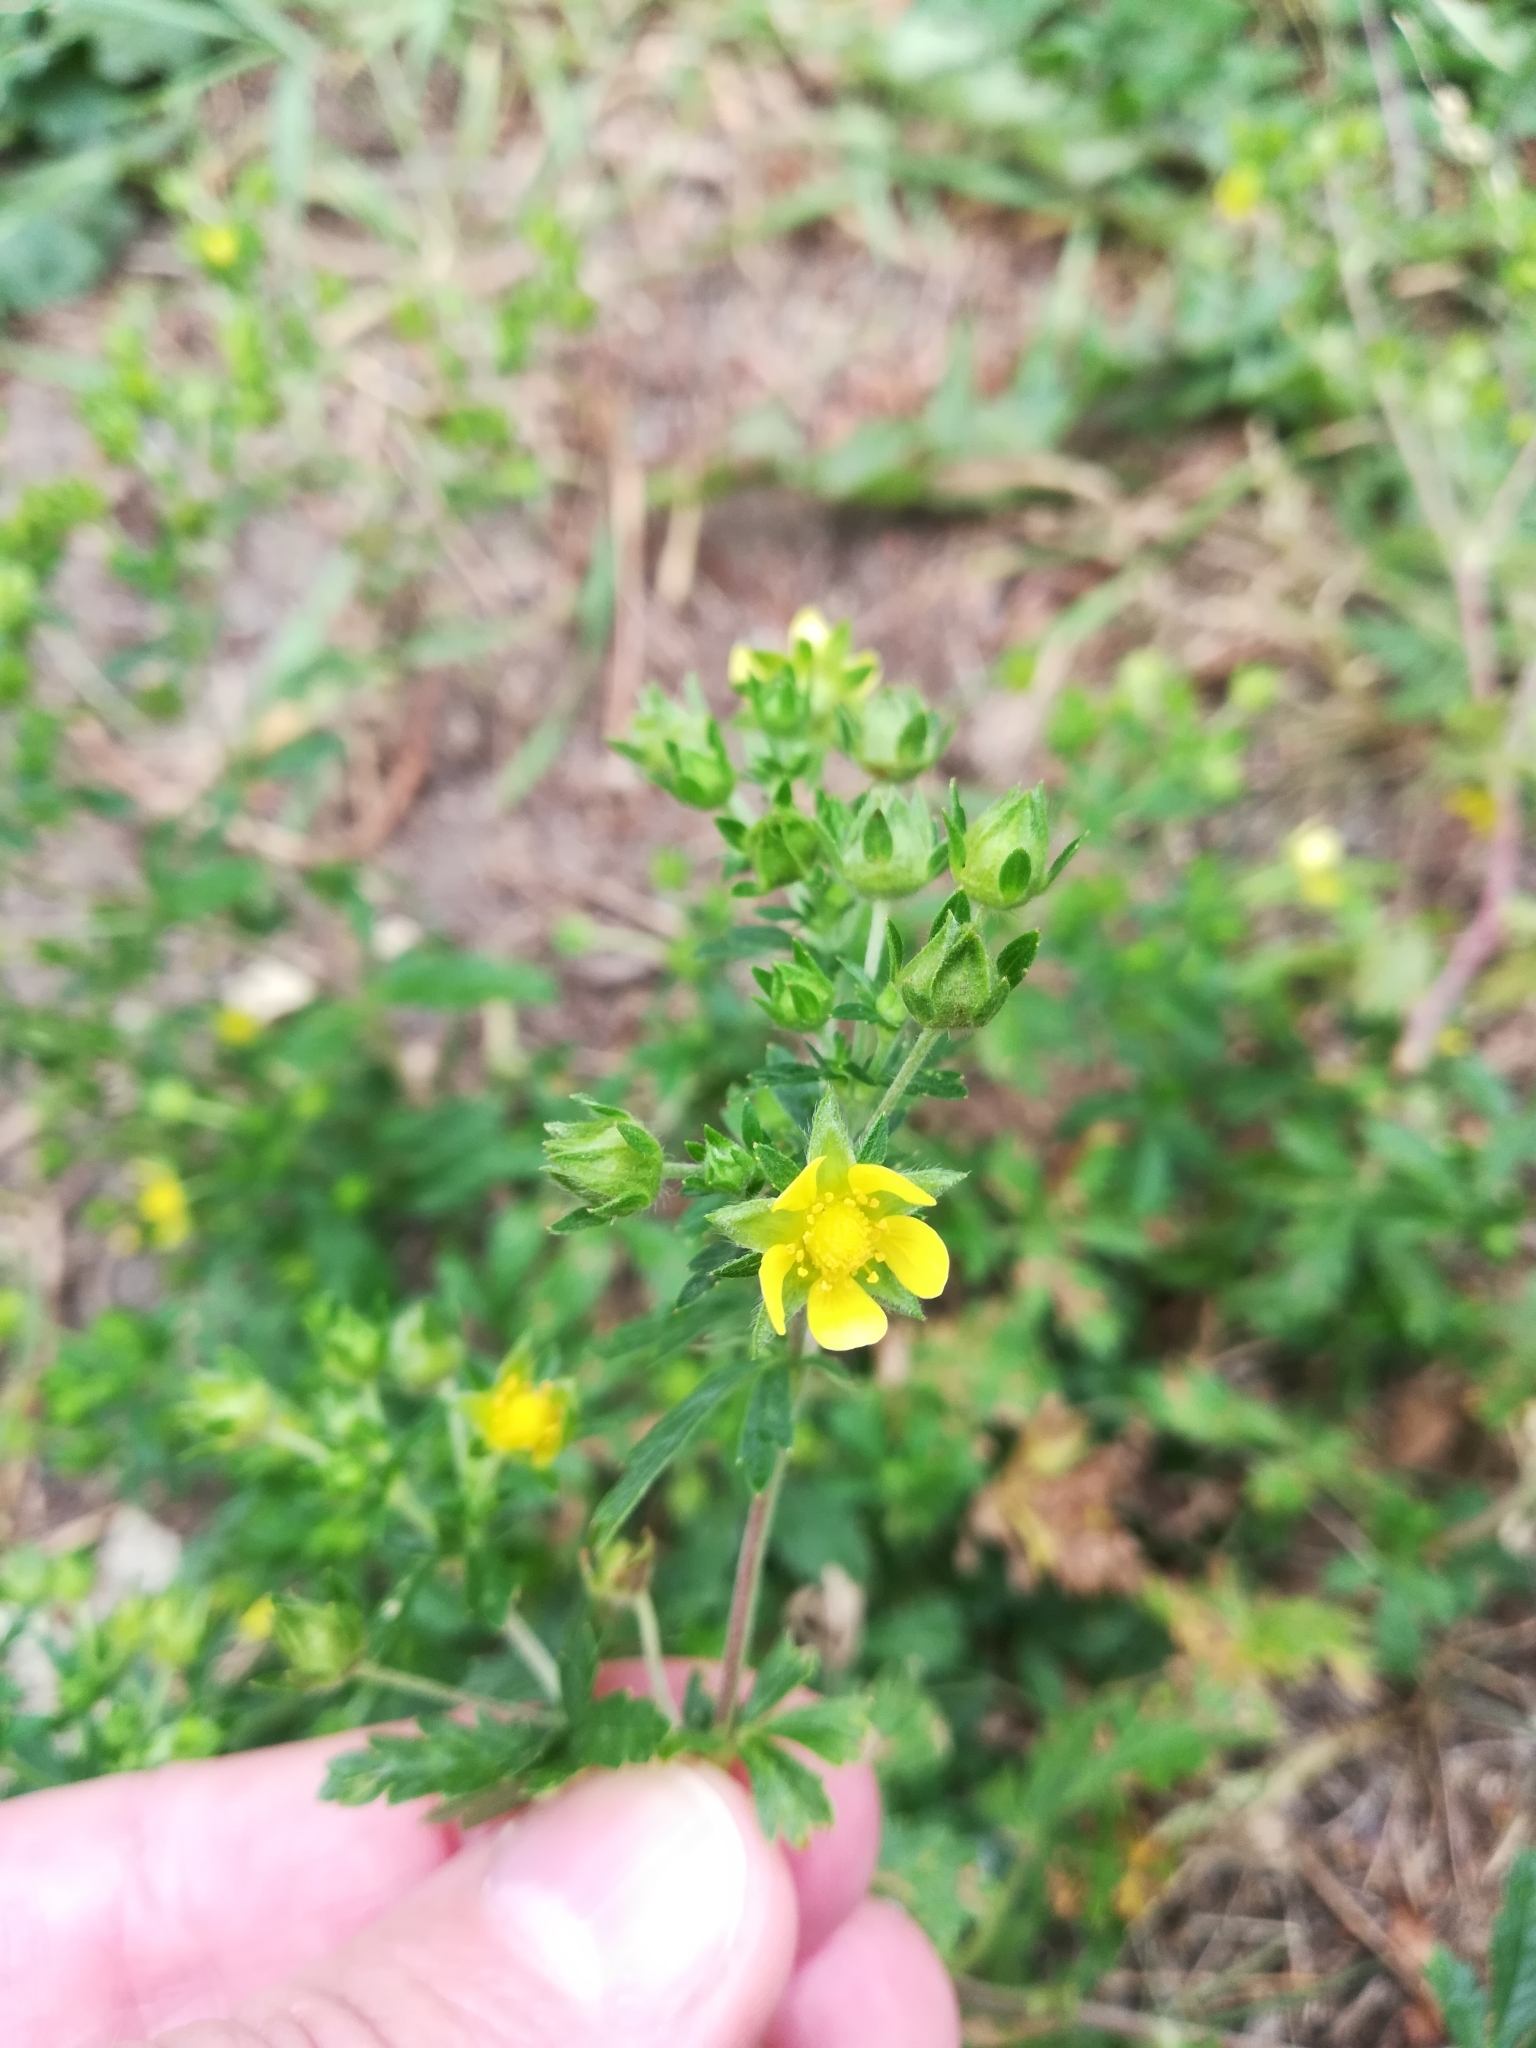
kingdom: Plantae
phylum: Tracheophyta
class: Magnoliopsida
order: Rosales
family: Rosaceae
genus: Potentilla
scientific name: Potentilla norvegica
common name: Ternate-leaved cinquefoil
